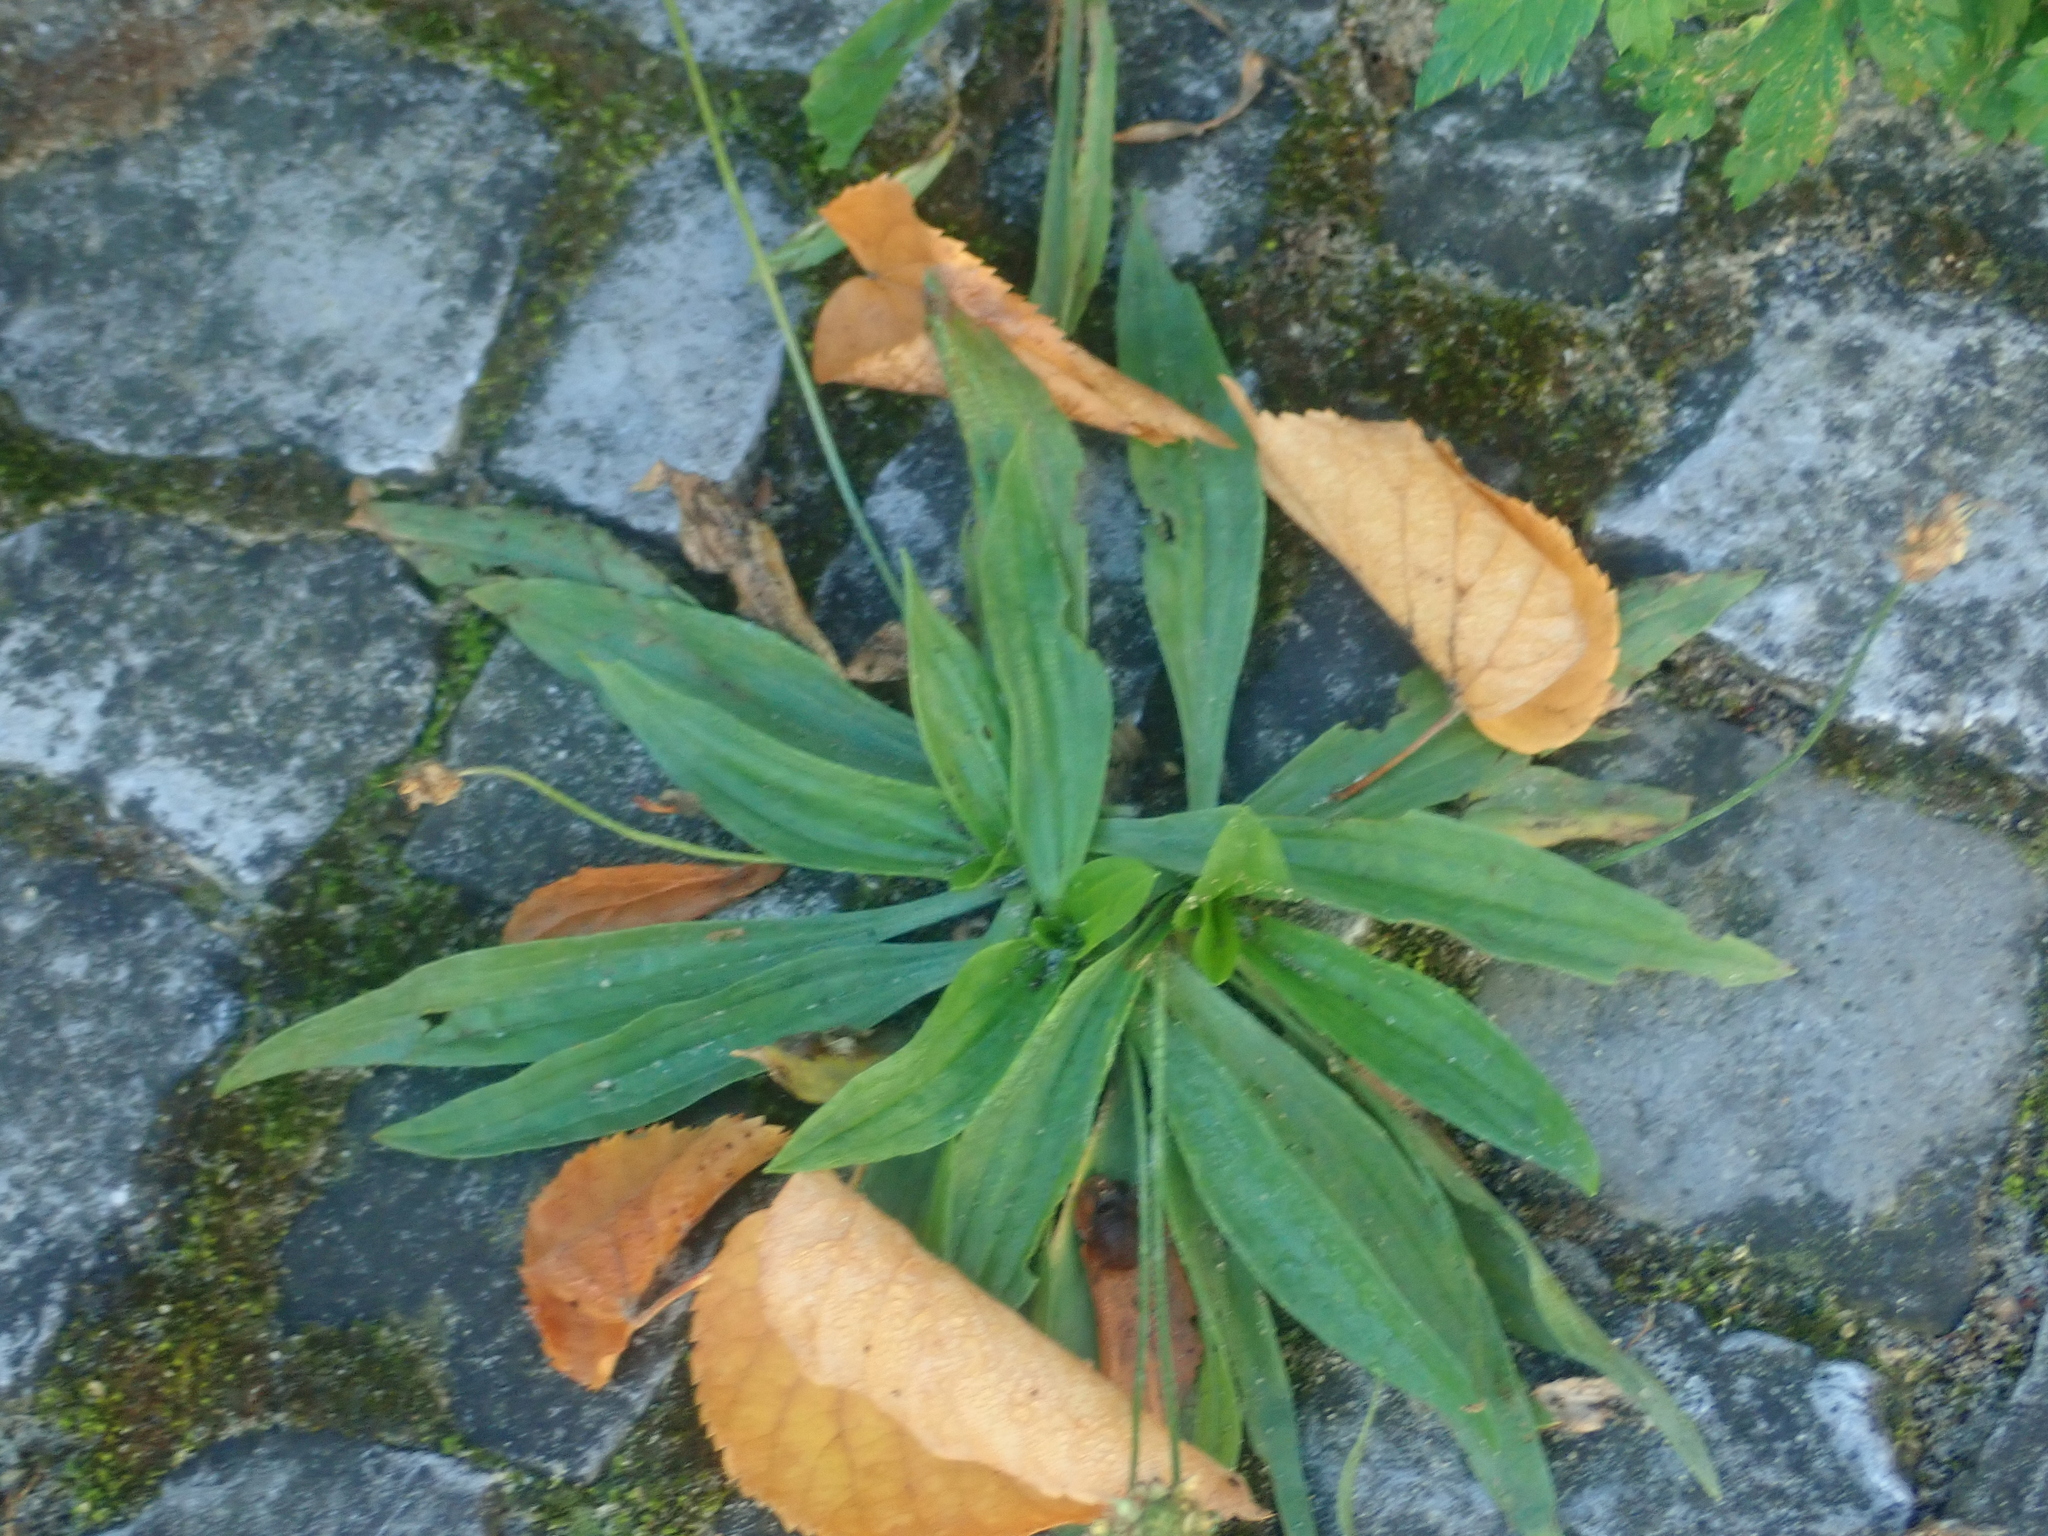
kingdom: Plantae
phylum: Tracheophyta
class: Magnoliopsida
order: Lamiales
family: Plantaginaceae
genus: Plantago
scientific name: Plantago lanceolata
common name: Ribwort plantain
